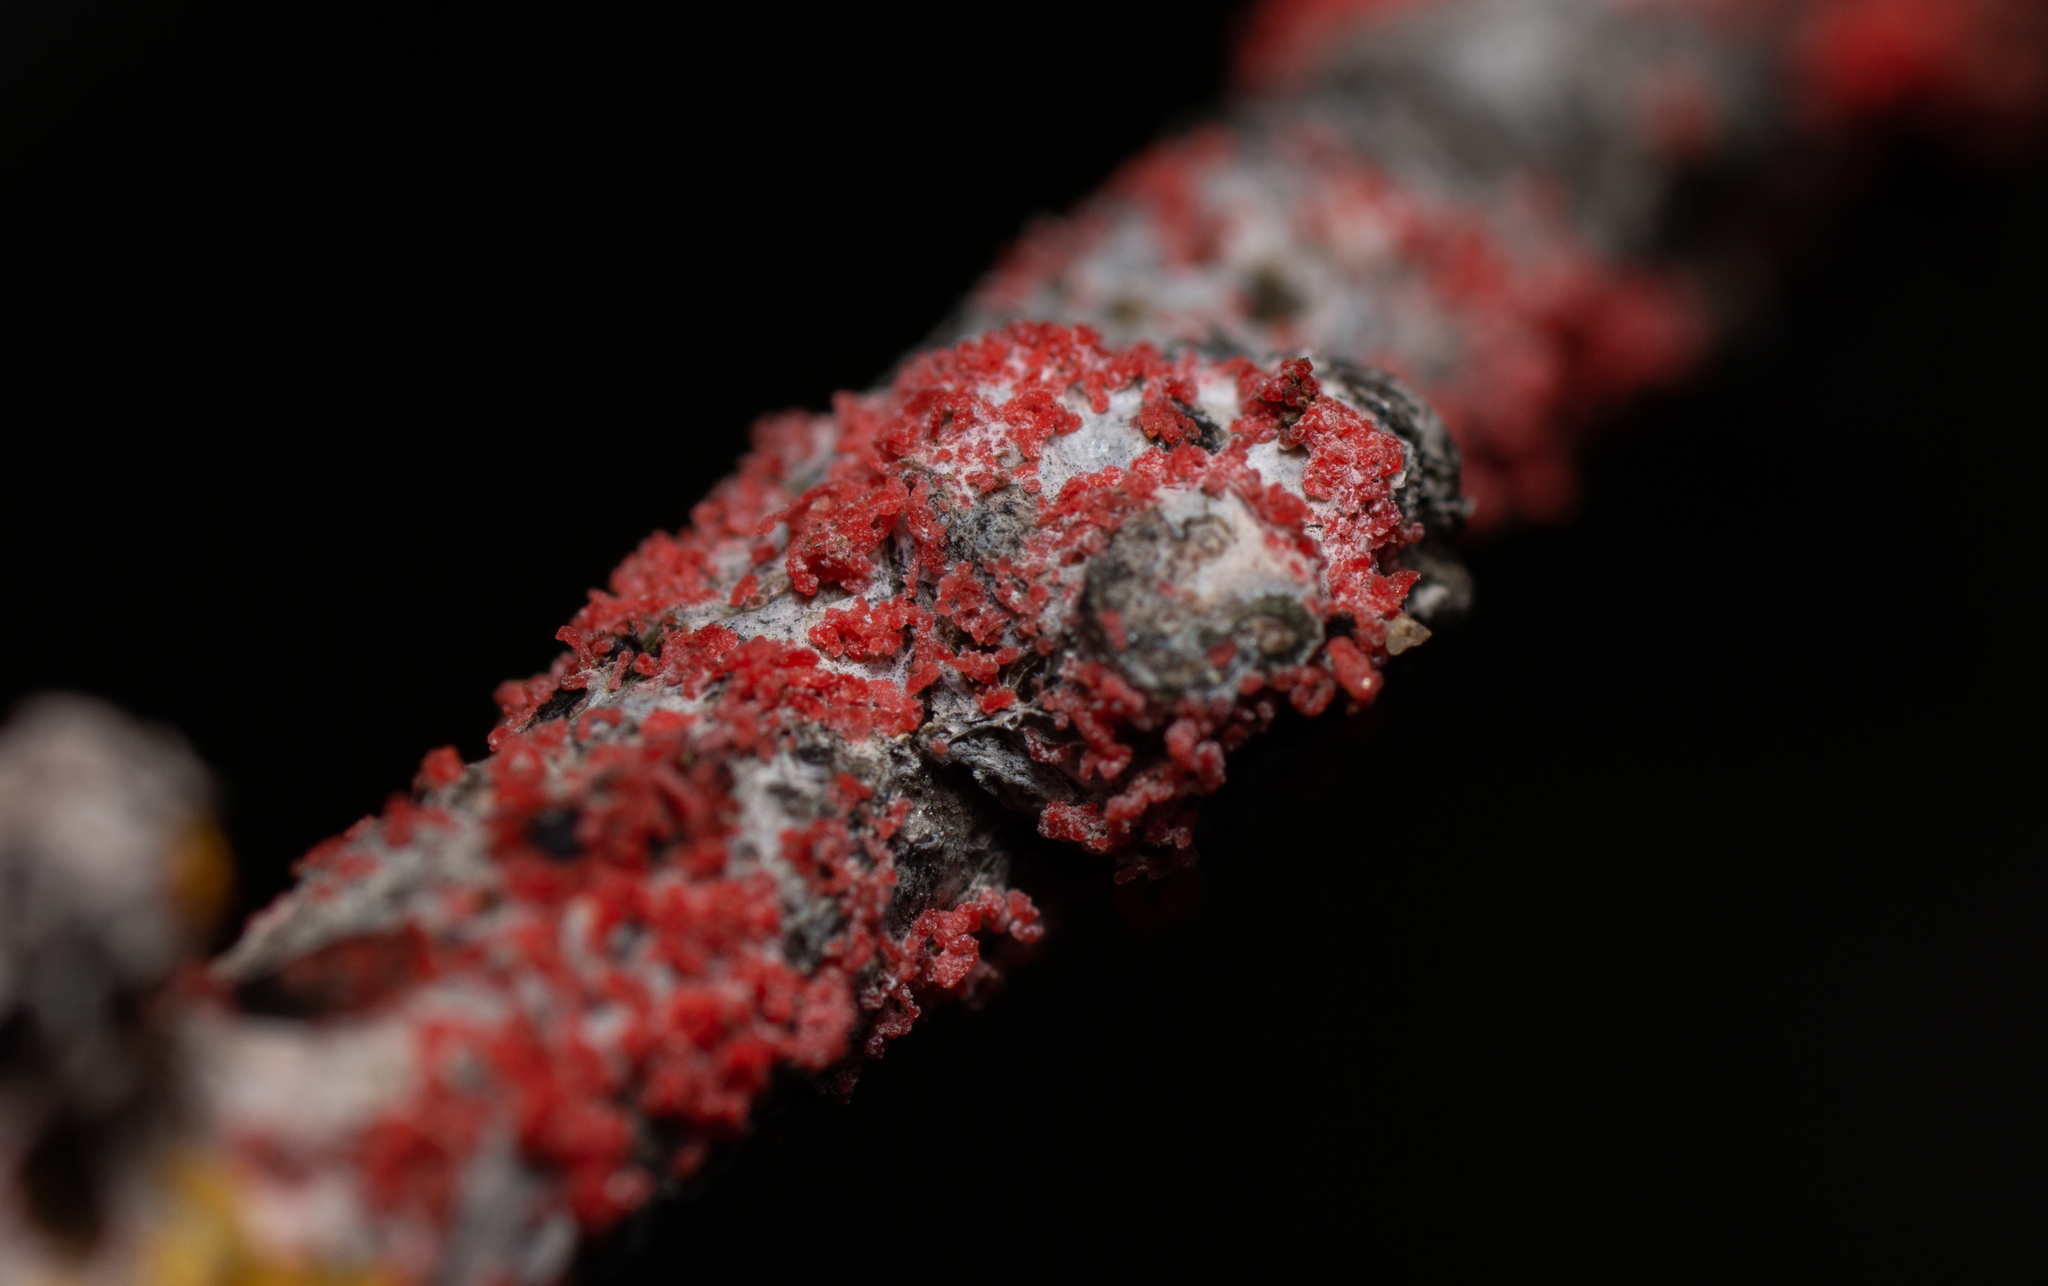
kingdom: Fungi
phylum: Basidiomycota
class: Agaricomycetes
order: Corticiales
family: Corticiaceae
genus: Marchandiomyces
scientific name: Marchandiomyces corallinus
